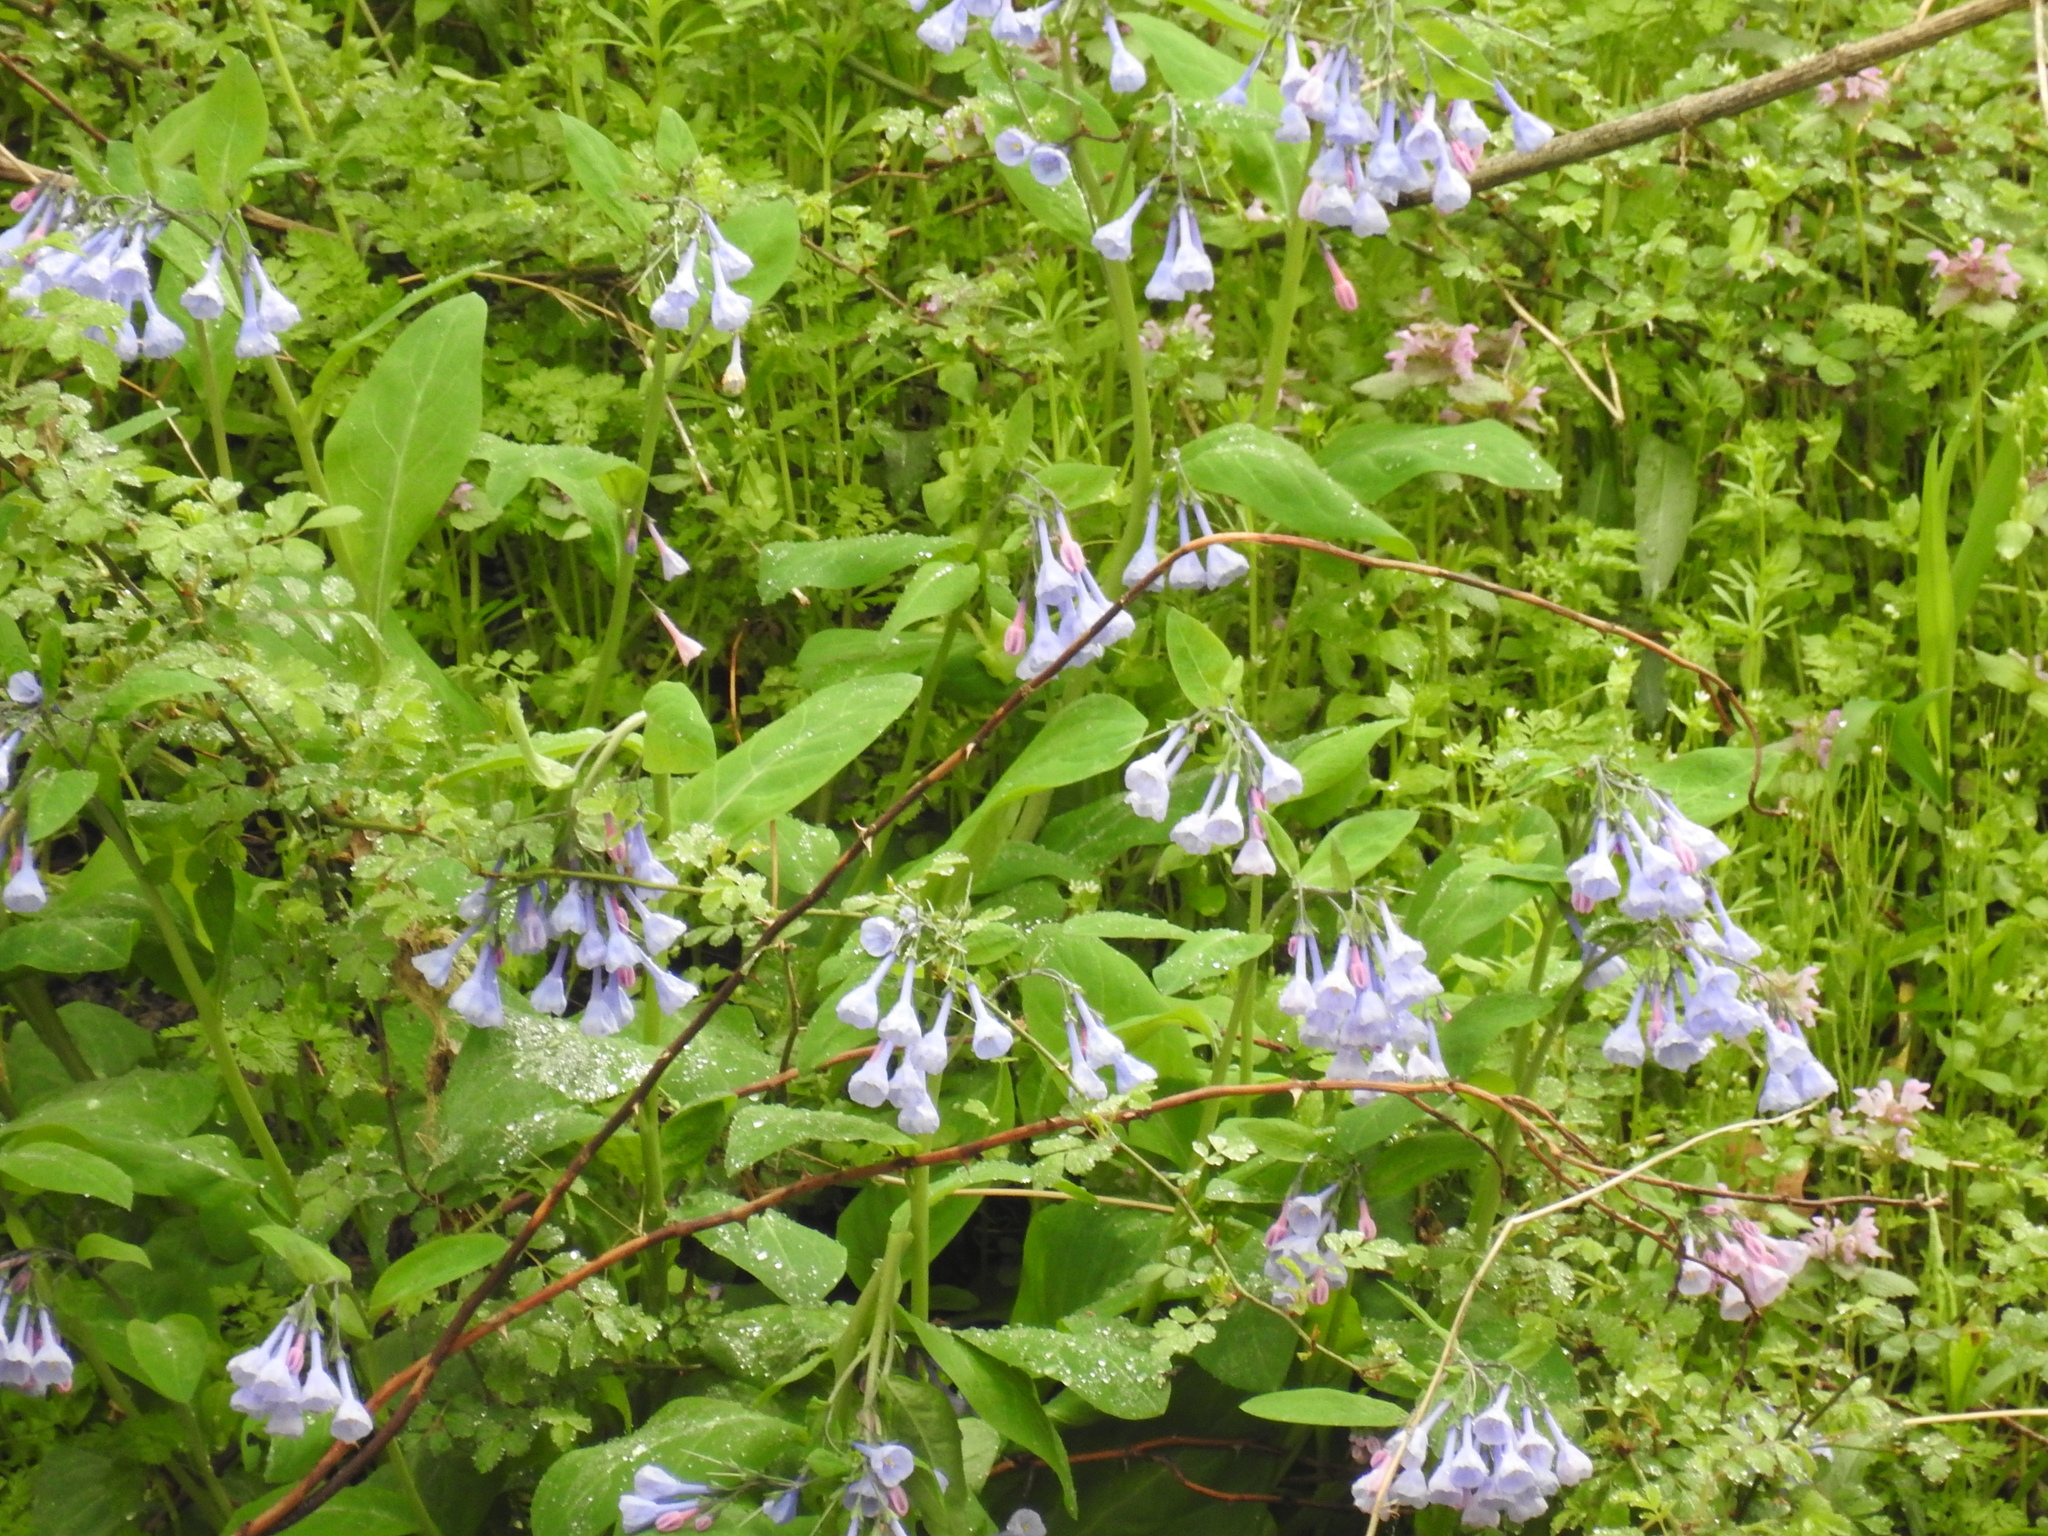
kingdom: Plantae
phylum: Tracheophyta
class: Magnoliopsida
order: Boraginales
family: Boraginaceae
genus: Mertensia
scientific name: Mertensia virginica
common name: Virginia bluebells
